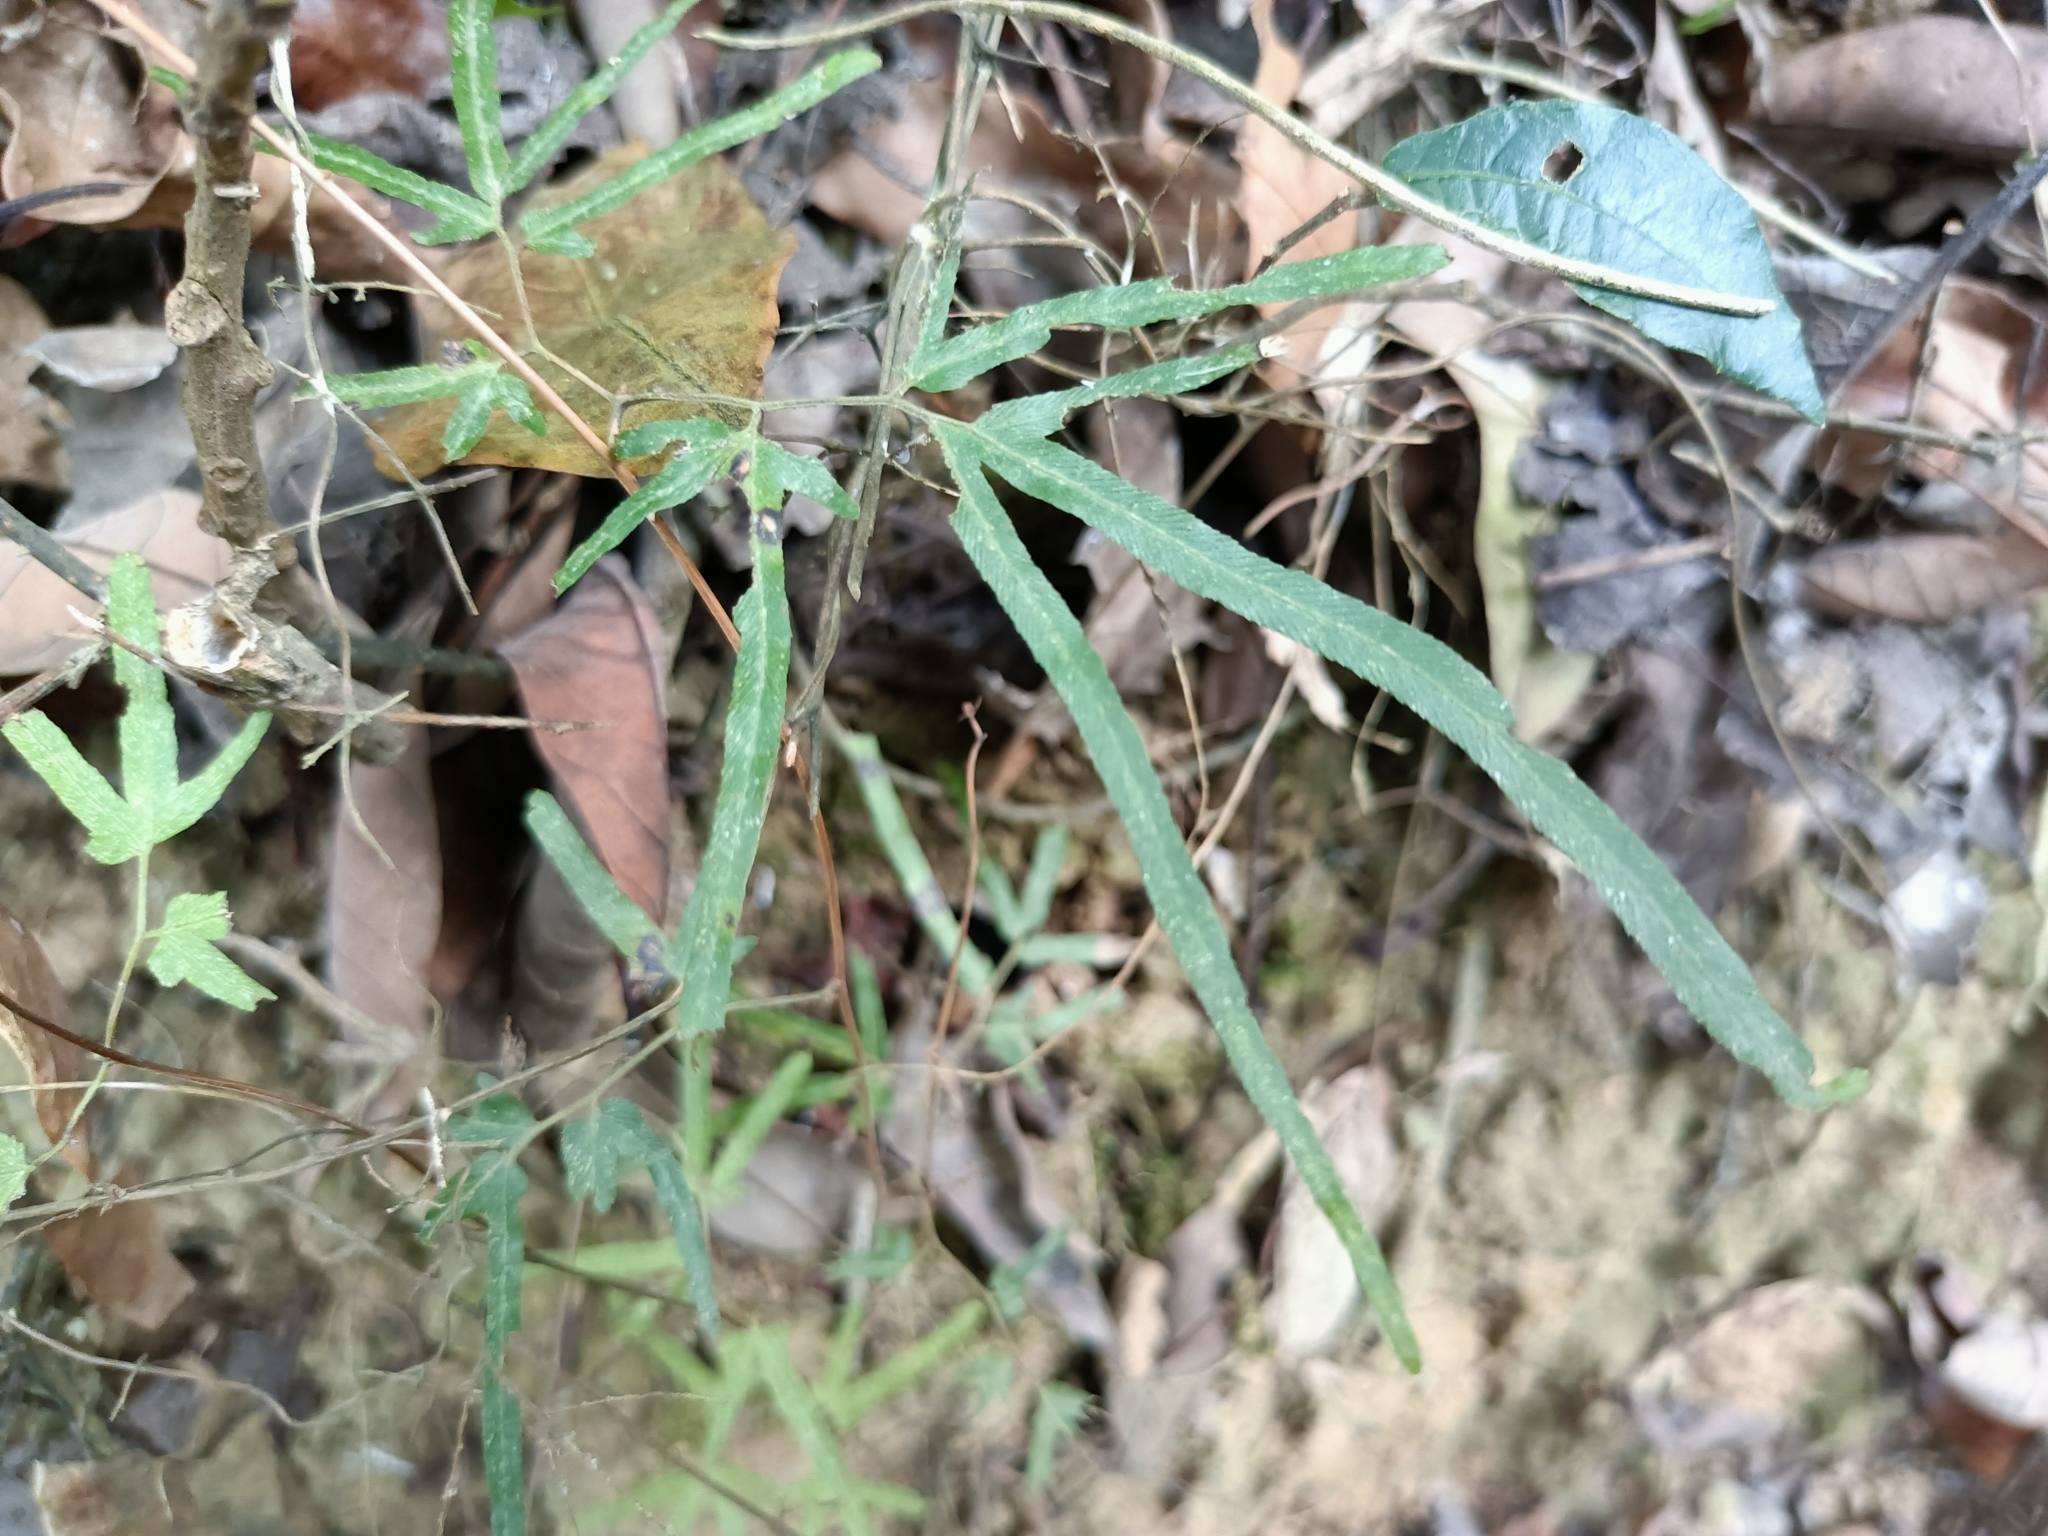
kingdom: Plantae
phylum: Tracheophyta
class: Polypodiopsida
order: Schizaeales
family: Lygodiaceae
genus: Lygodium
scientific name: Lygodium japonicum
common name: Japanese climbing fern
